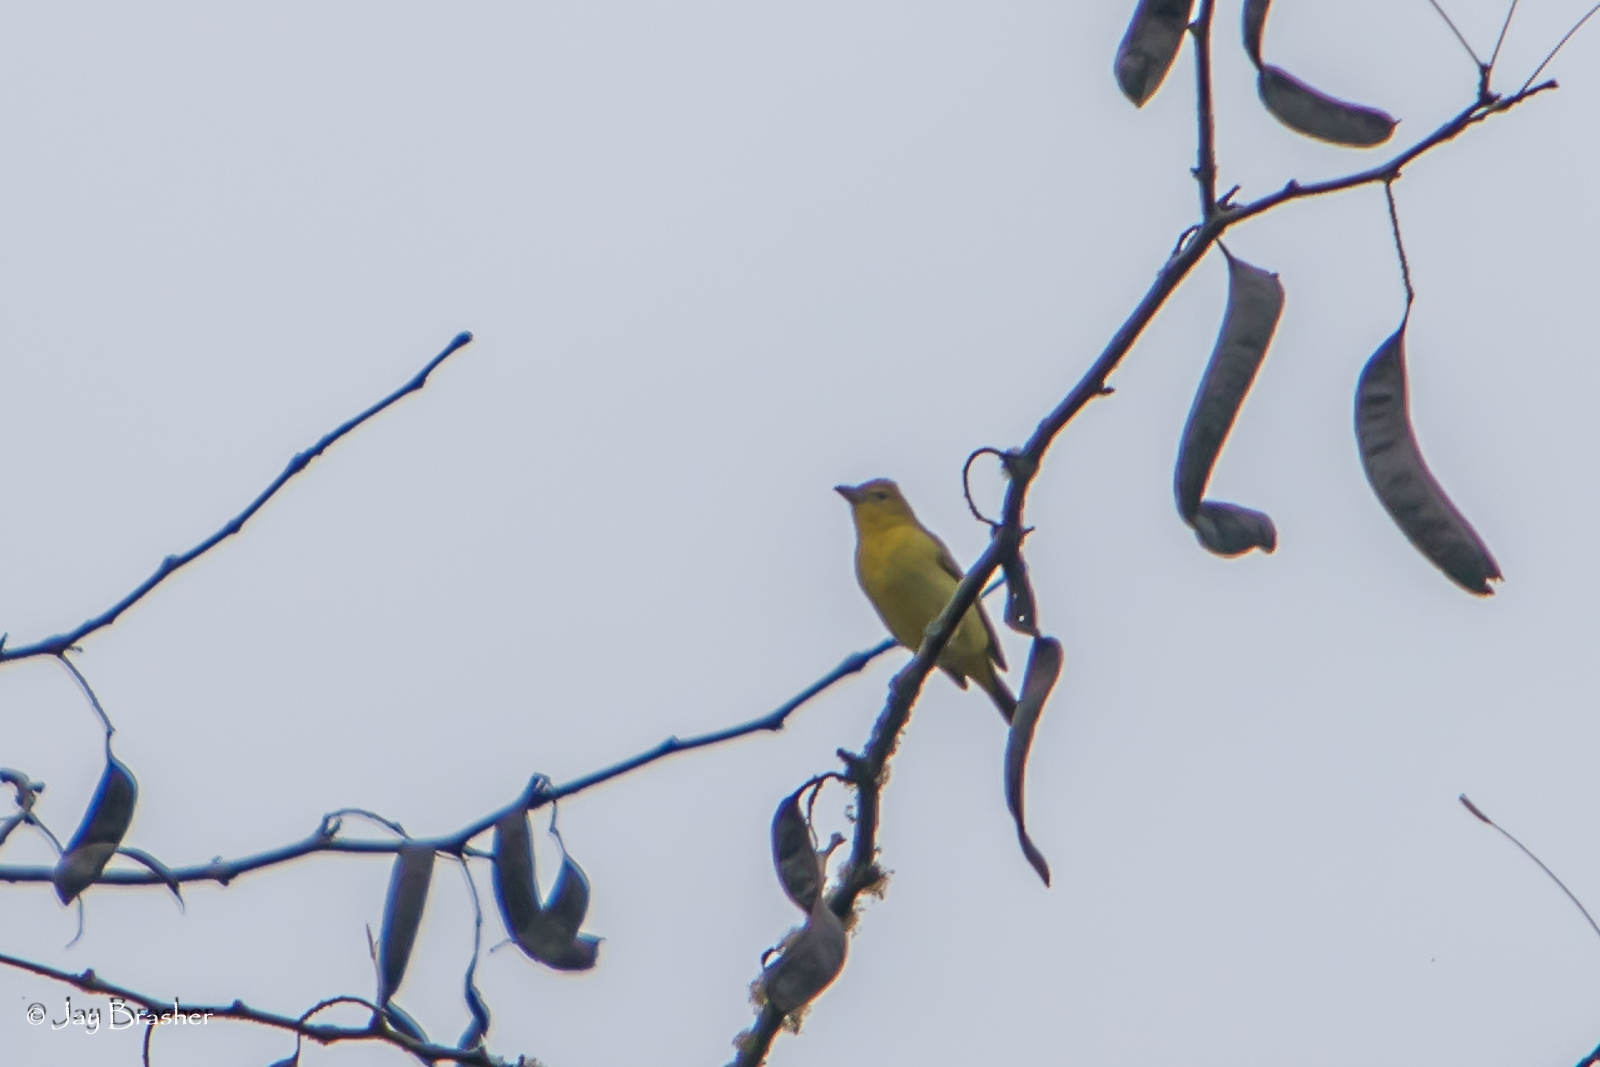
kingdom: Animalia
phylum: Chordata
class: Aves
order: Passeriformes
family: Cardinalidae
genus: Piranga
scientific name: Piranga rubra
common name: Summer tanager
